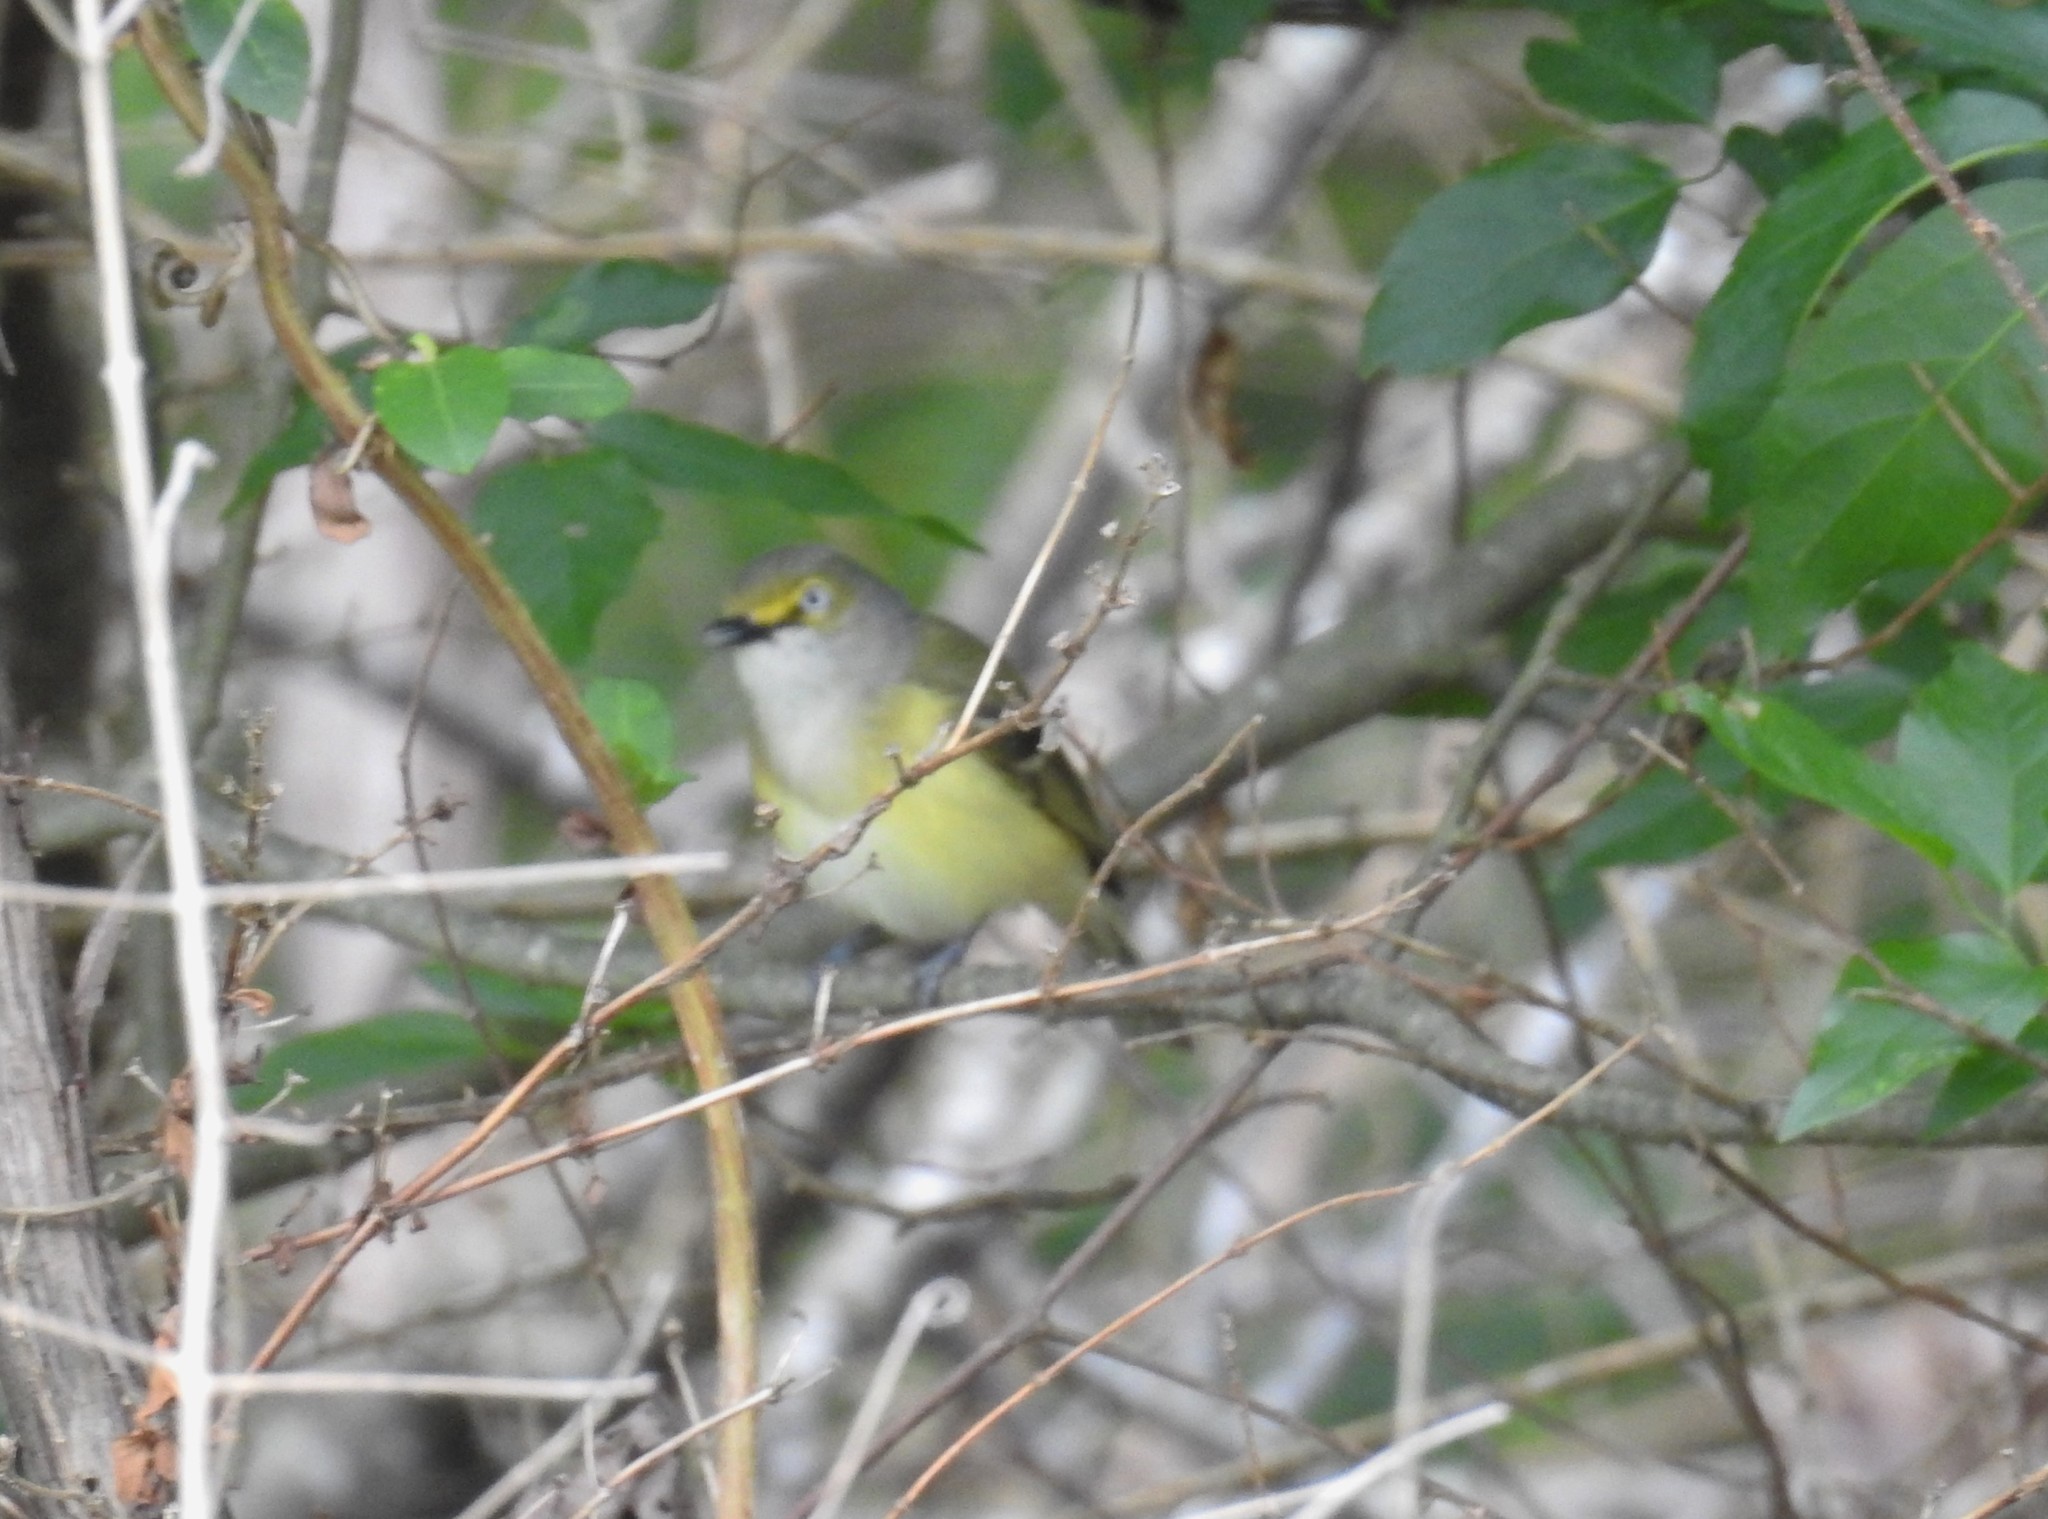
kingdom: Animalia
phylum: Chordata
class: Aves
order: Passeriformes
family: Vireonidae
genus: Vireo
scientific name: Vireo griseus
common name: White-eyed vireo
